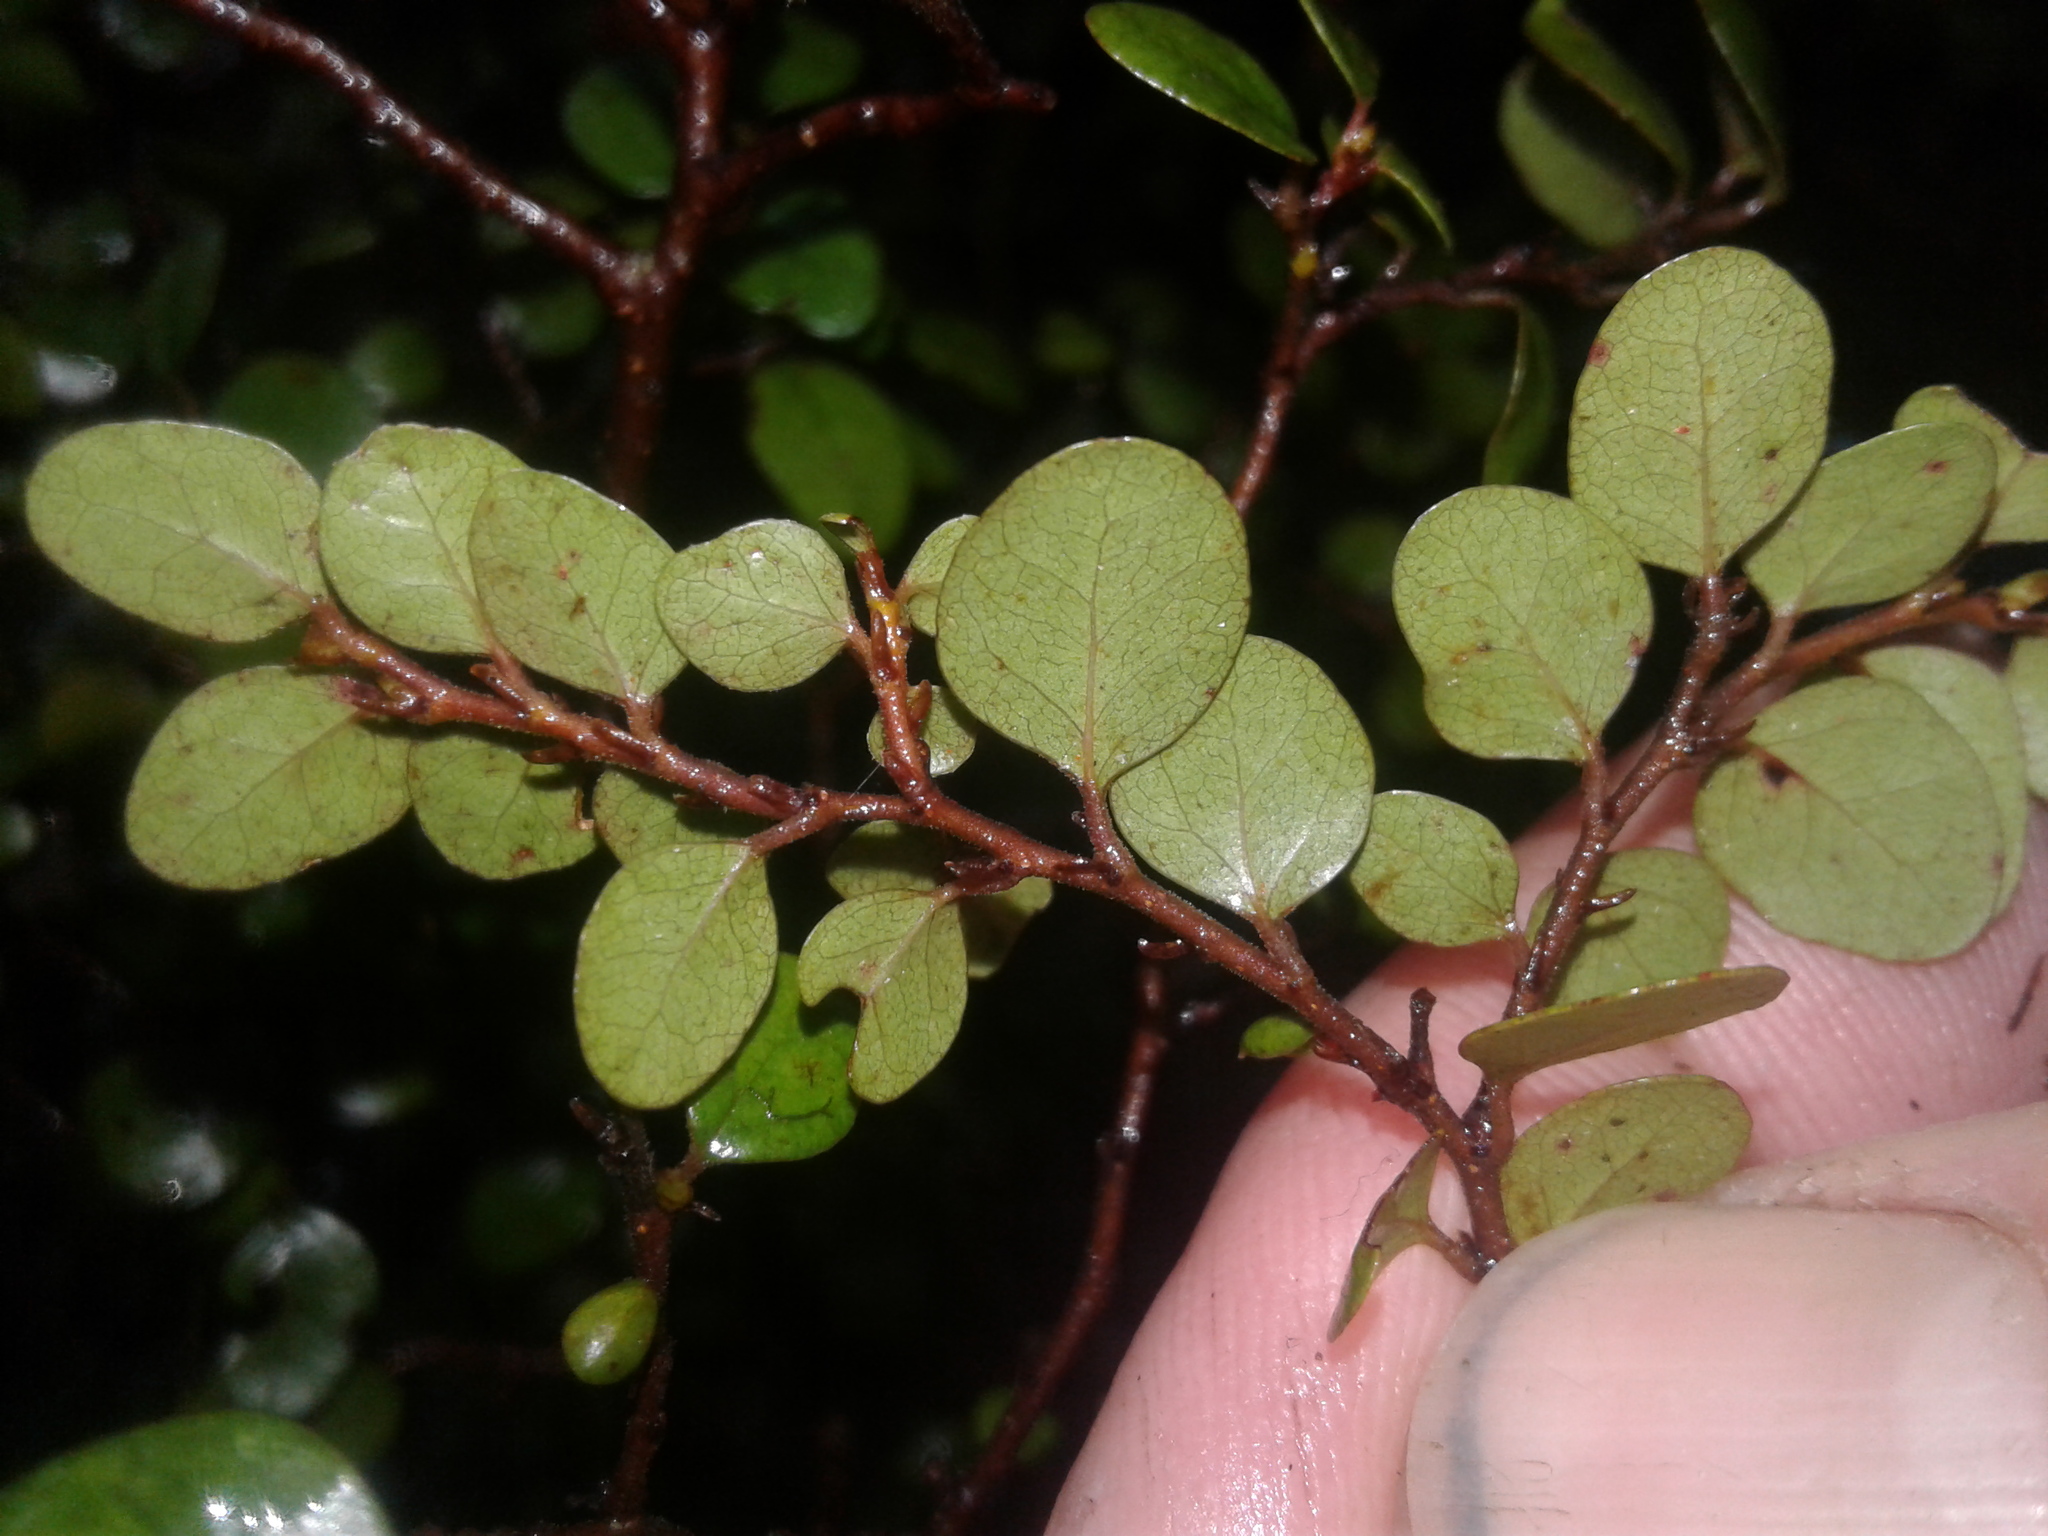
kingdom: Plantae
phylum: Tracheophyta
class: Magnoliopsida
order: Fagales
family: Nothofagaceae
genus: Nothofagus
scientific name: Nothofagus solandri
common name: Black beech
